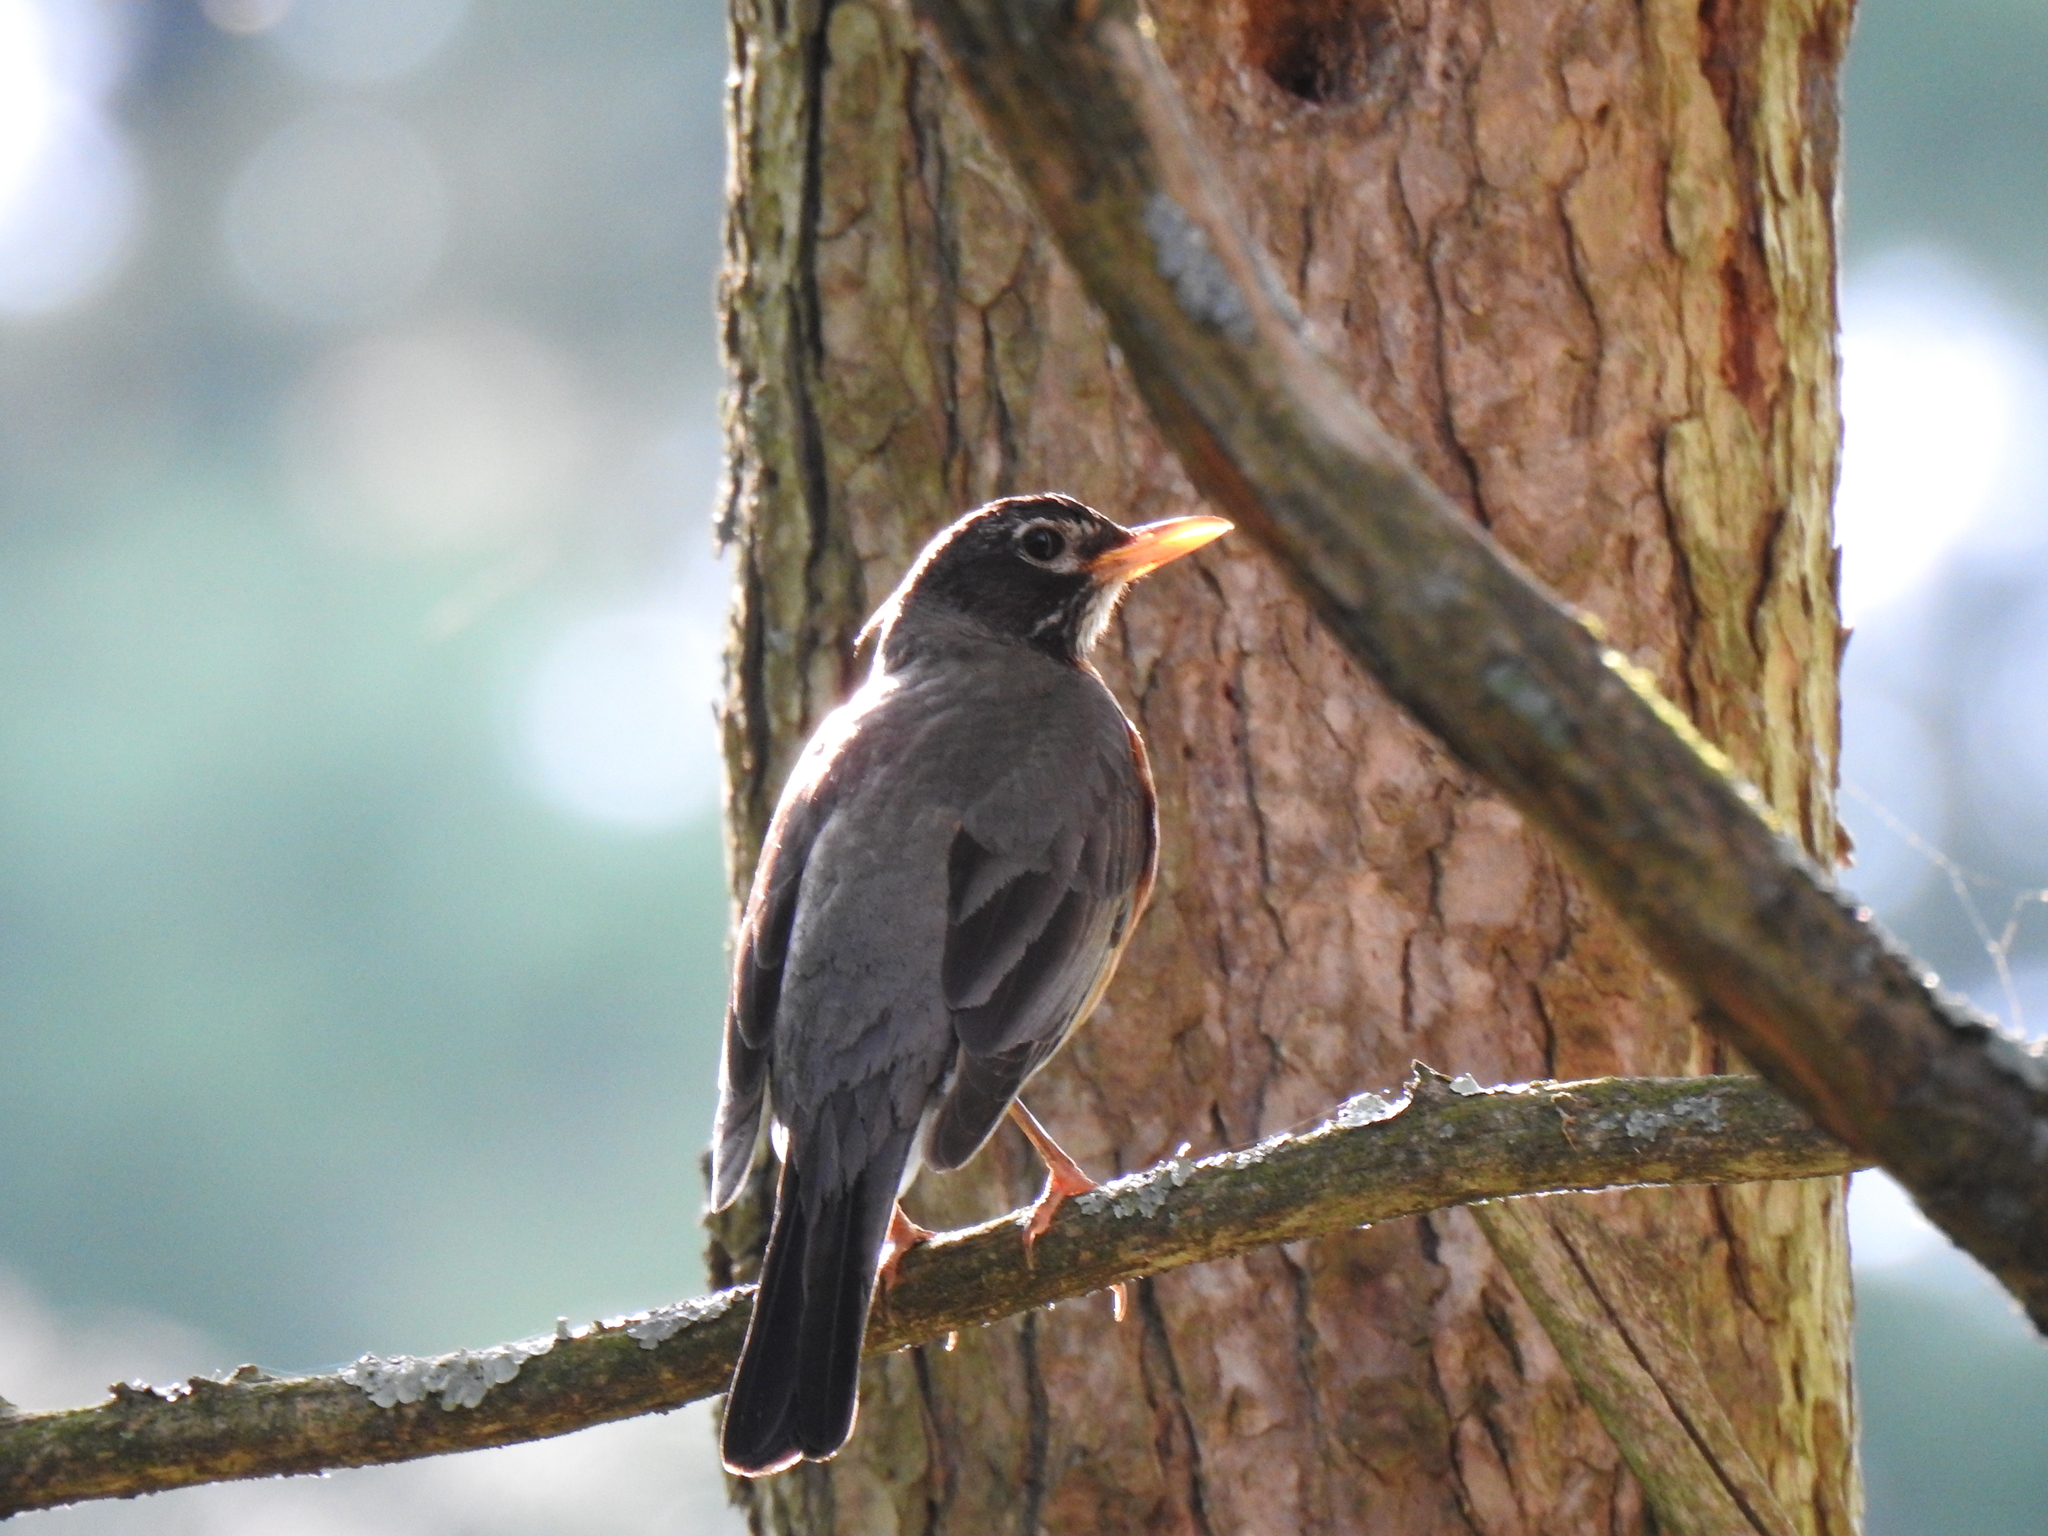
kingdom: Animalia
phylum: Chordata
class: Aves
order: Passeriformes
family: Turdidae
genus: Turdus
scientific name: Turdus migratorius
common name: American robin
